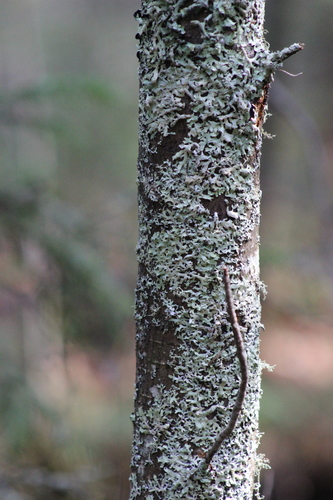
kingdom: Fungi
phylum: Ascomycota
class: Lecanoromycetes
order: Lecanorales
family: Parmeliaceae
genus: Parmelia
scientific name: Parmelia squarrosa
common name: Bottle brush shield lichen
